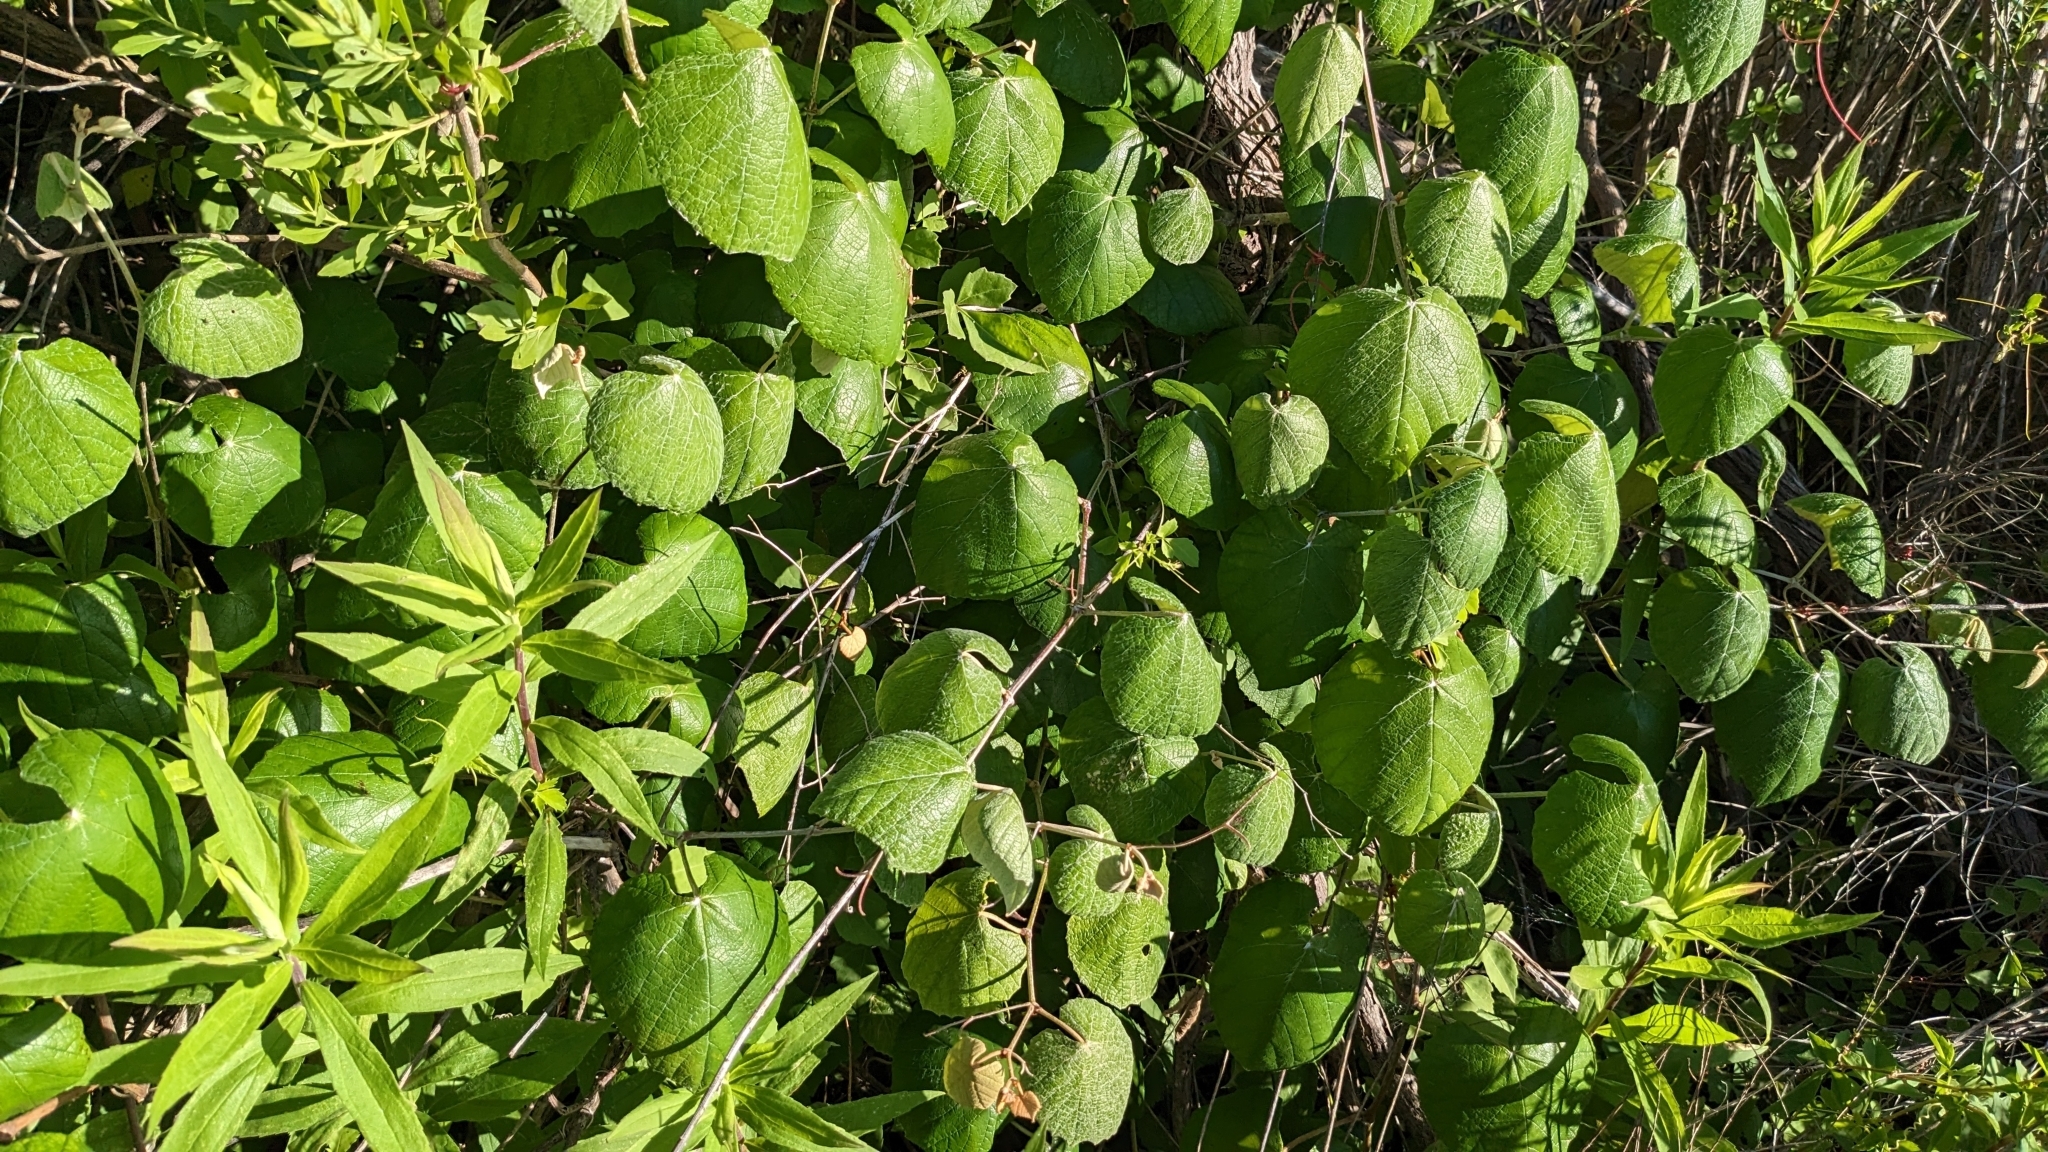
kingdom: Plantae
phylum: Tracheophyta
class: Magnoliopsida
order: Vitales
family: Vitaceae
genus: Vitis
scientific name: Vitis mustangensis
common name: Mustang grape
